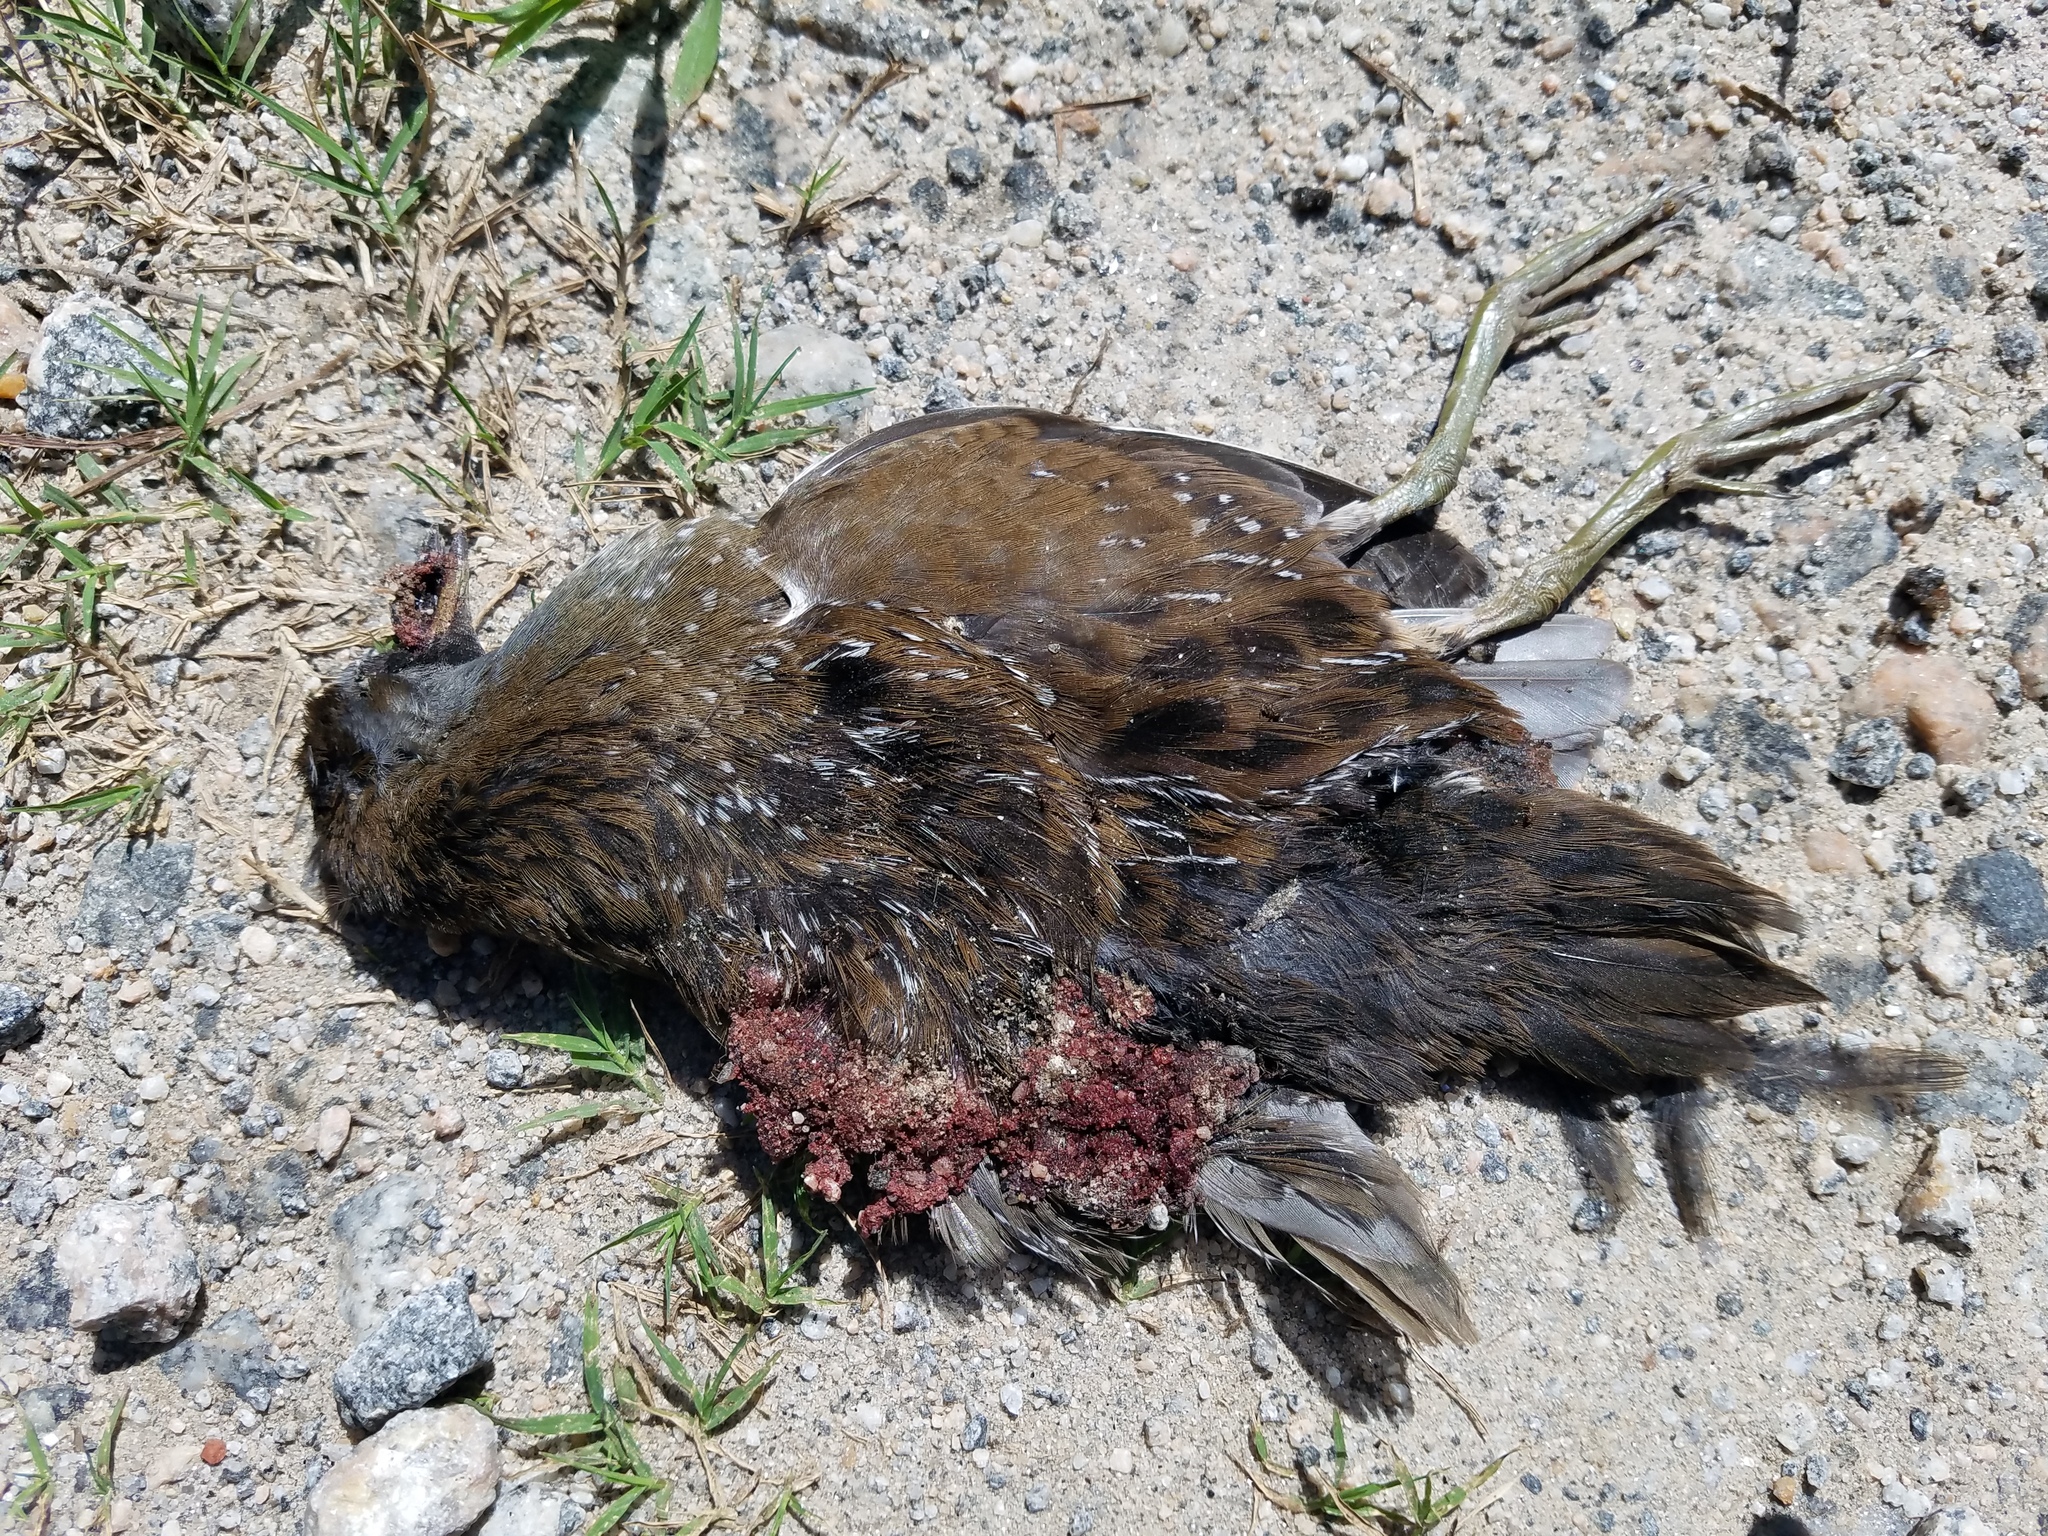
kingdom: Animalia
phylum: Chordata
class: Aves
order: Gruiformes
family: Rallidae
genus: Porzana
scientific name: Porzana carolina
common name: Sora
